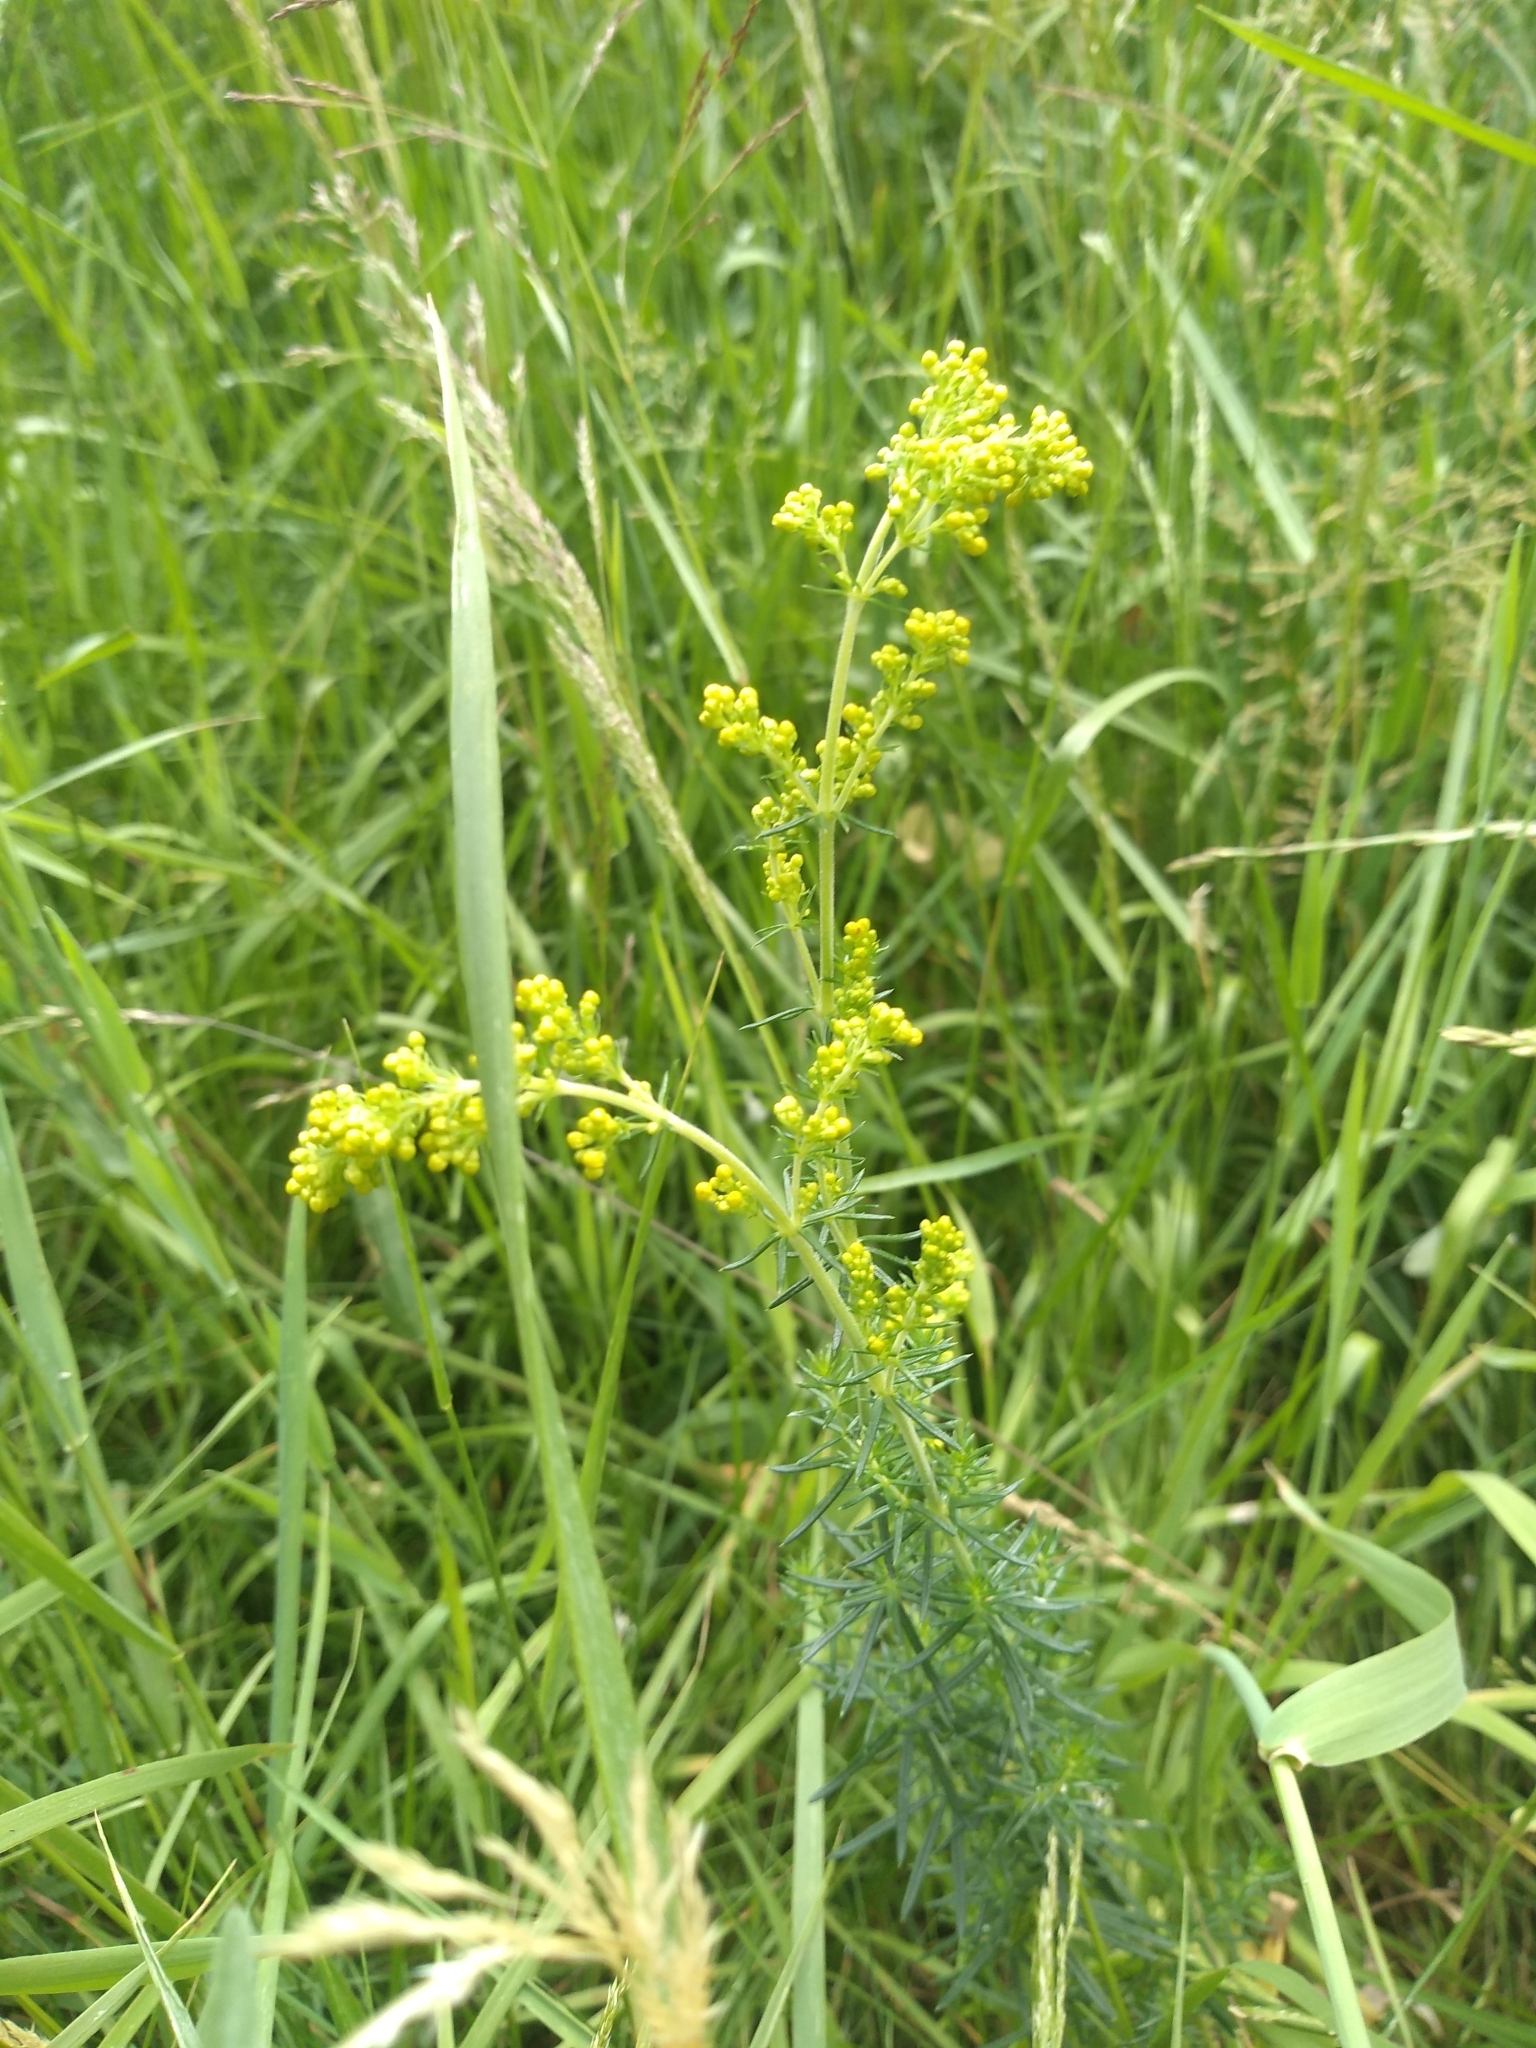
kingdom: Plantae
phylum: Tracheophyta
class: Magnoliopsida
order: Gentianales
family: Rubiaceae
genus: Galium
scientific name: Galium verum
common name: Lady's bedstraw
